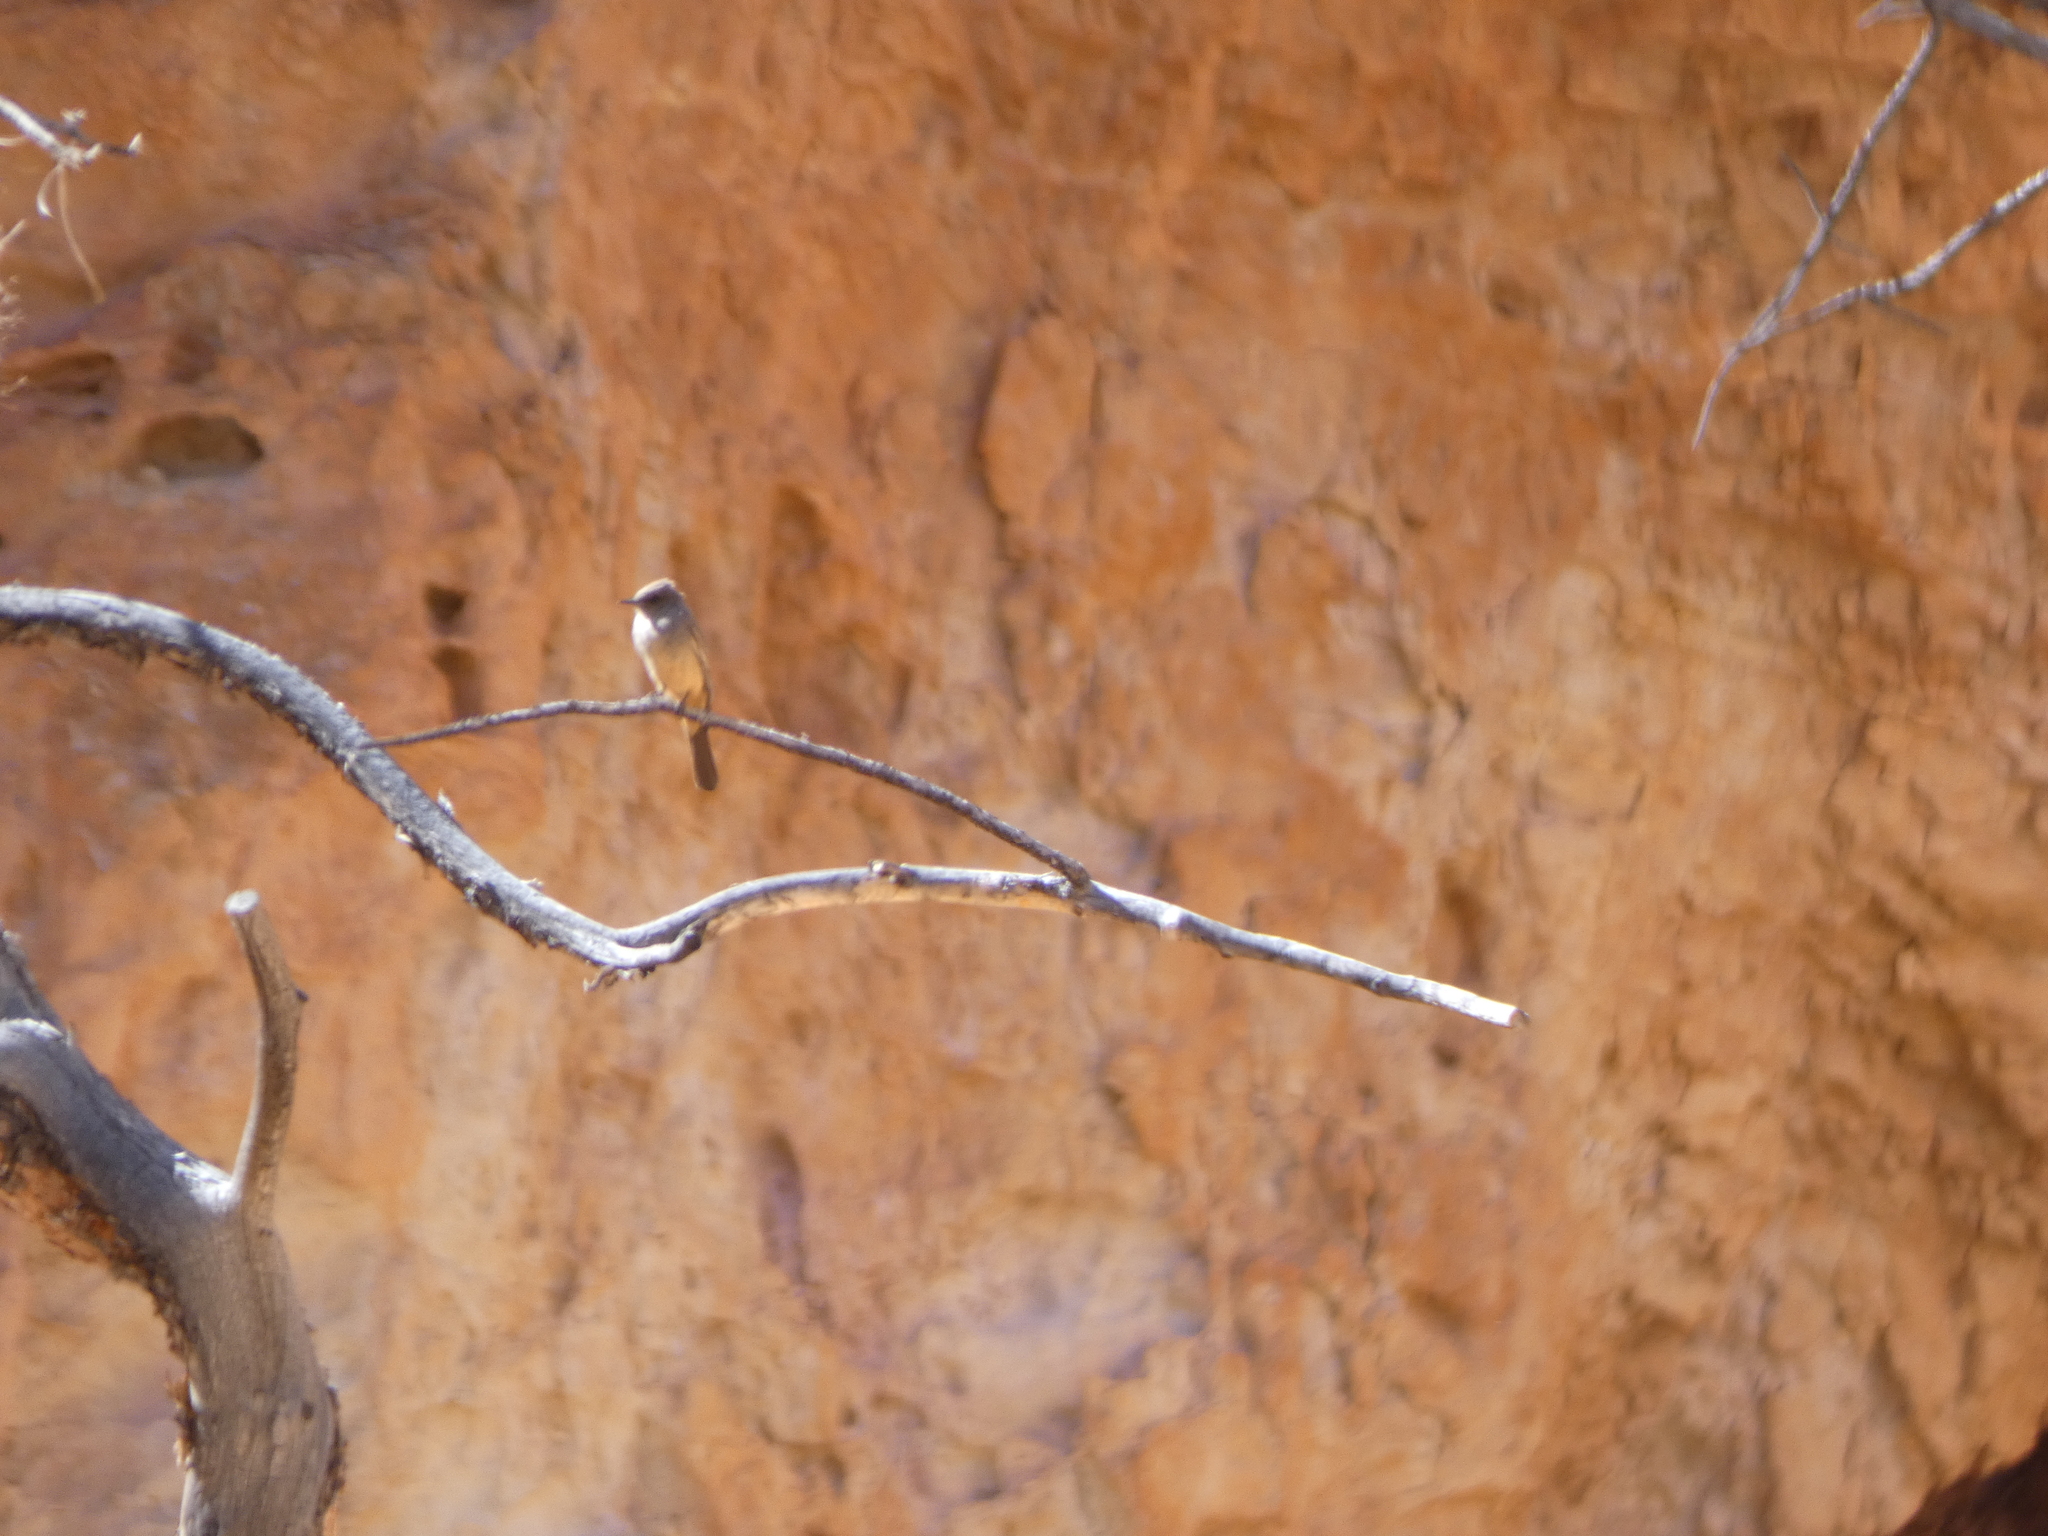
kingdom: Animalia
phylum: Chordata
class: Aves
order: Passeriformes
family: Tyrannidae
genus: Sayornis
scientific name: Sayornis saya
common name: Say's phoebe
